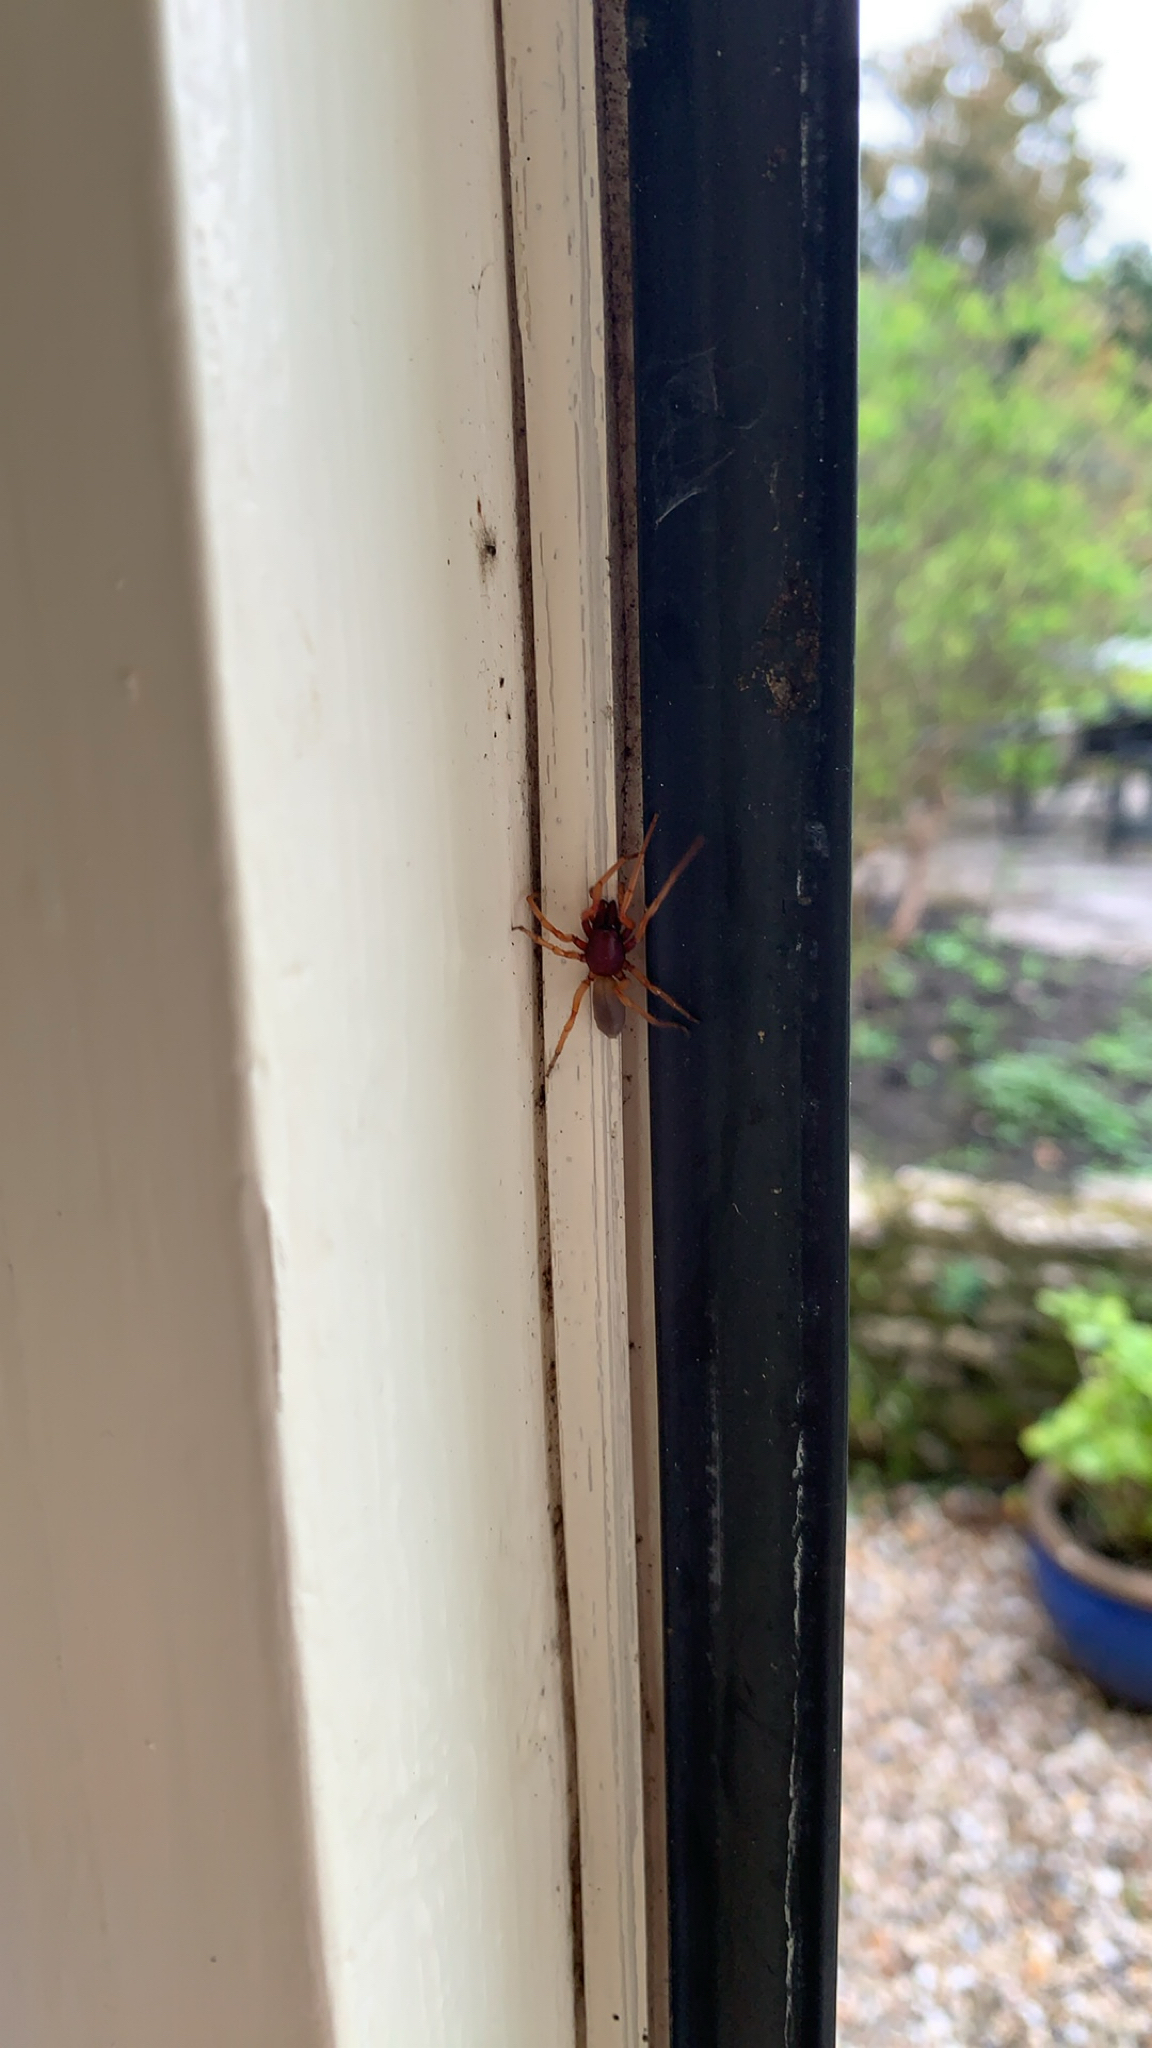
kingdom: Animalia
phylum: Arthropoda
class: Arachnida
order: Araneae
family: Dysderidae
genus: Dysdera
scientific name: Dysdera crocata
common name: Woodlouse spider
